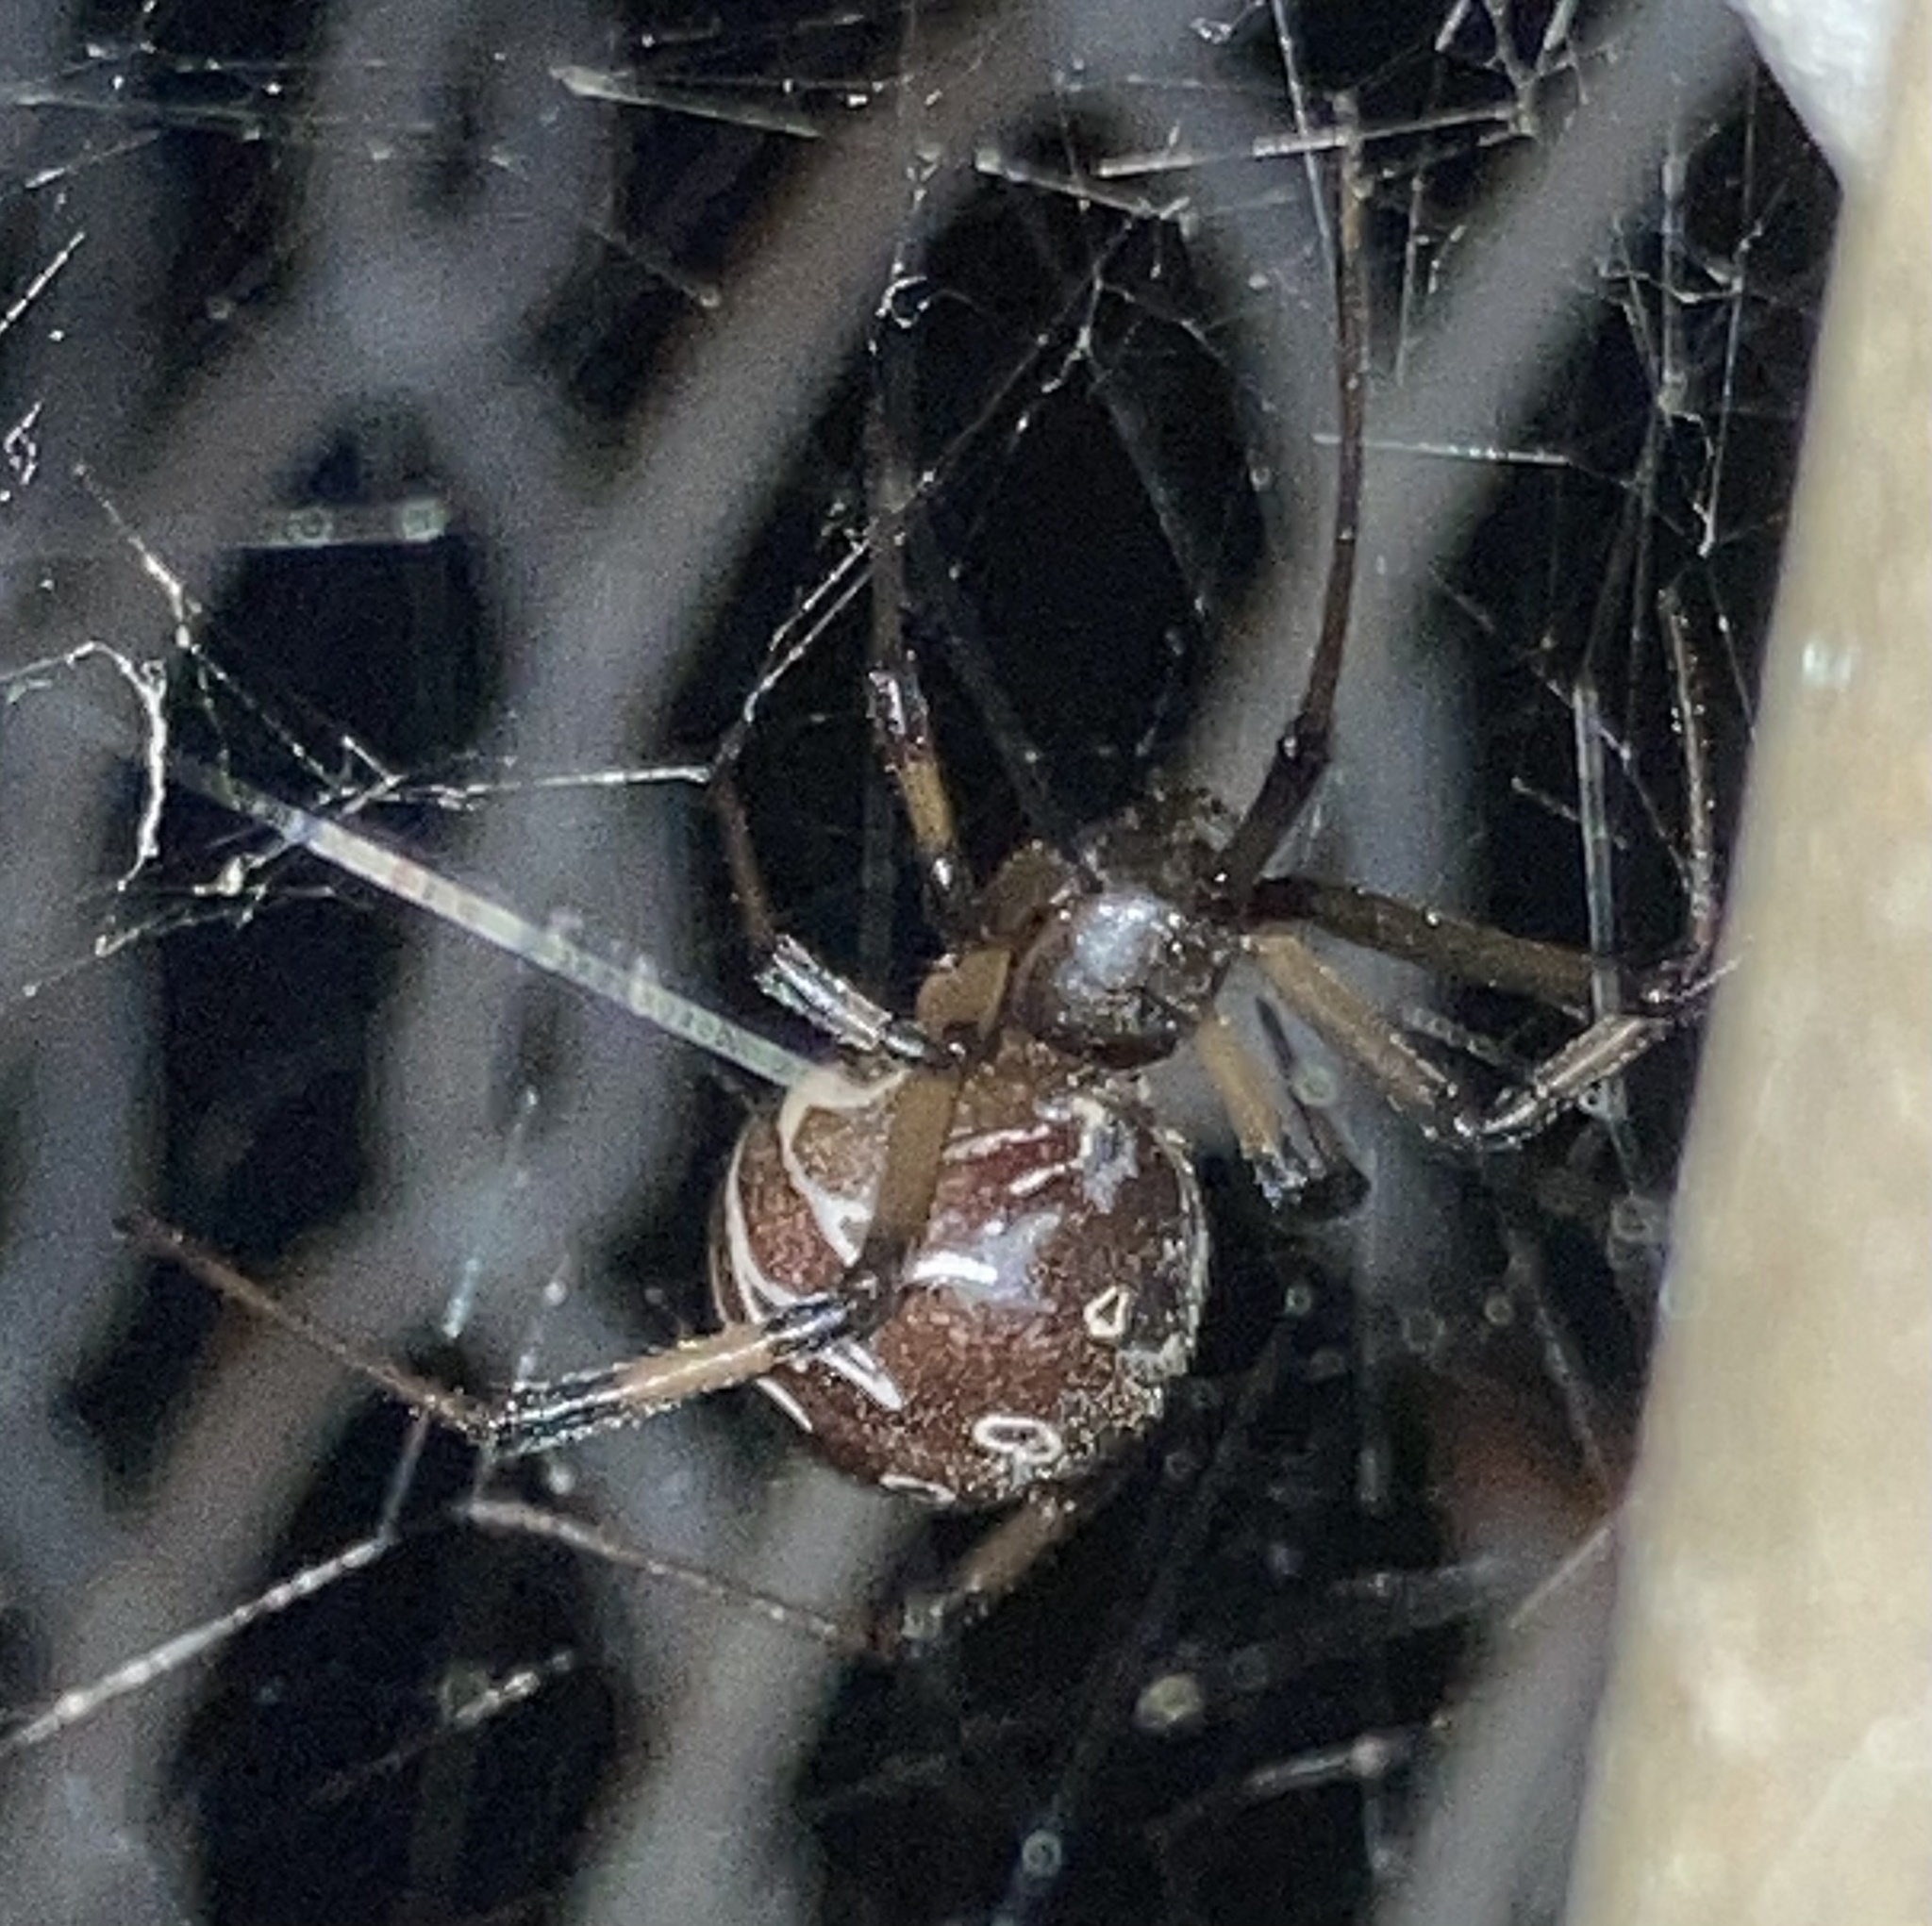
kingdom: Animalia
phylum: Arthropoda
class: Arachnida
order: Araneae
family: Theridiidae
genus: Latrodectus
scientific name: Latrodectus geometricus
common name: Brown widow spider
